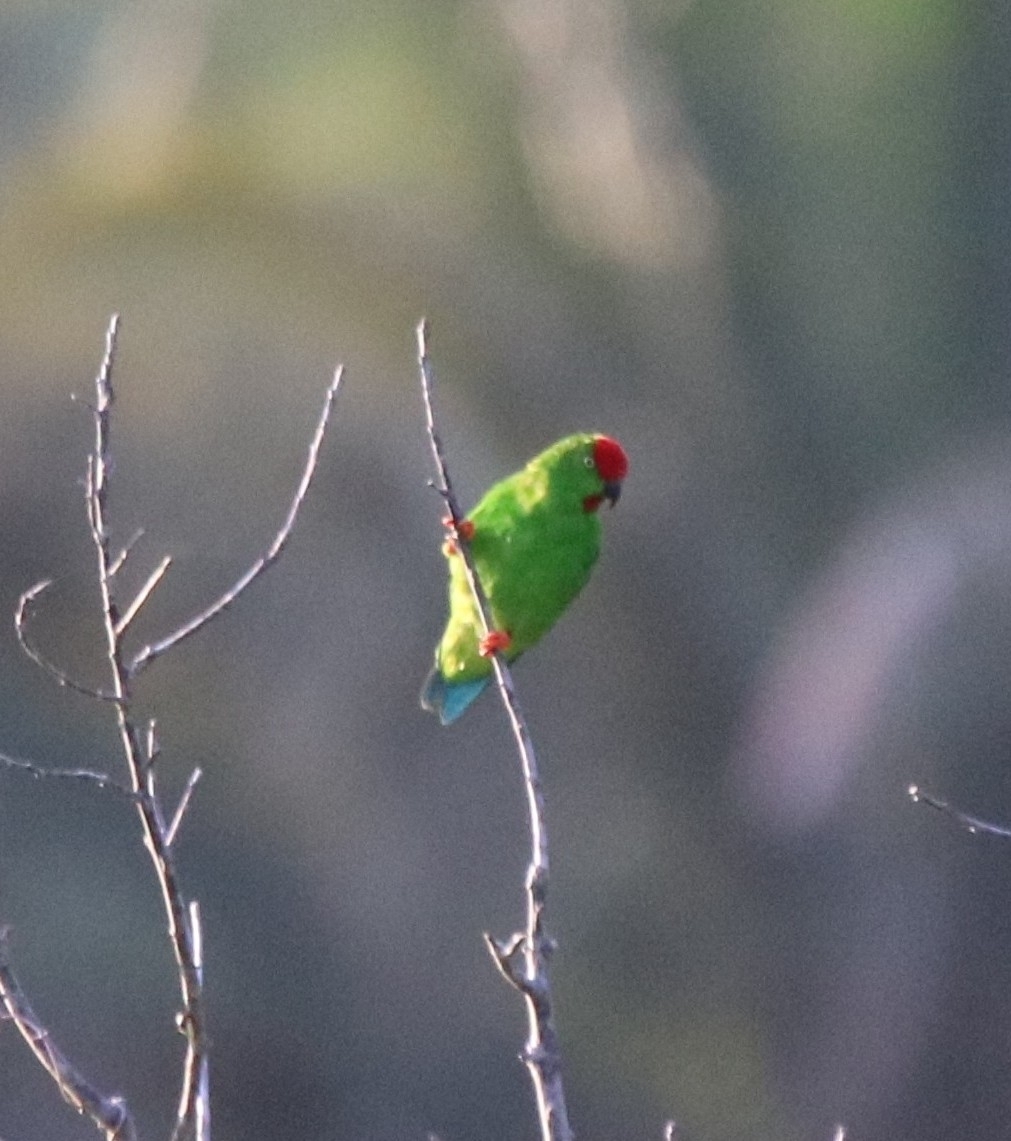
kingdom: Animalia
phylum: Chordata
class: Aves
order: Psittaciformes
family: Psittacidae
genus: Loriculus
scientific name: Loriculus stigmatus
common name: Great hanging parrot
